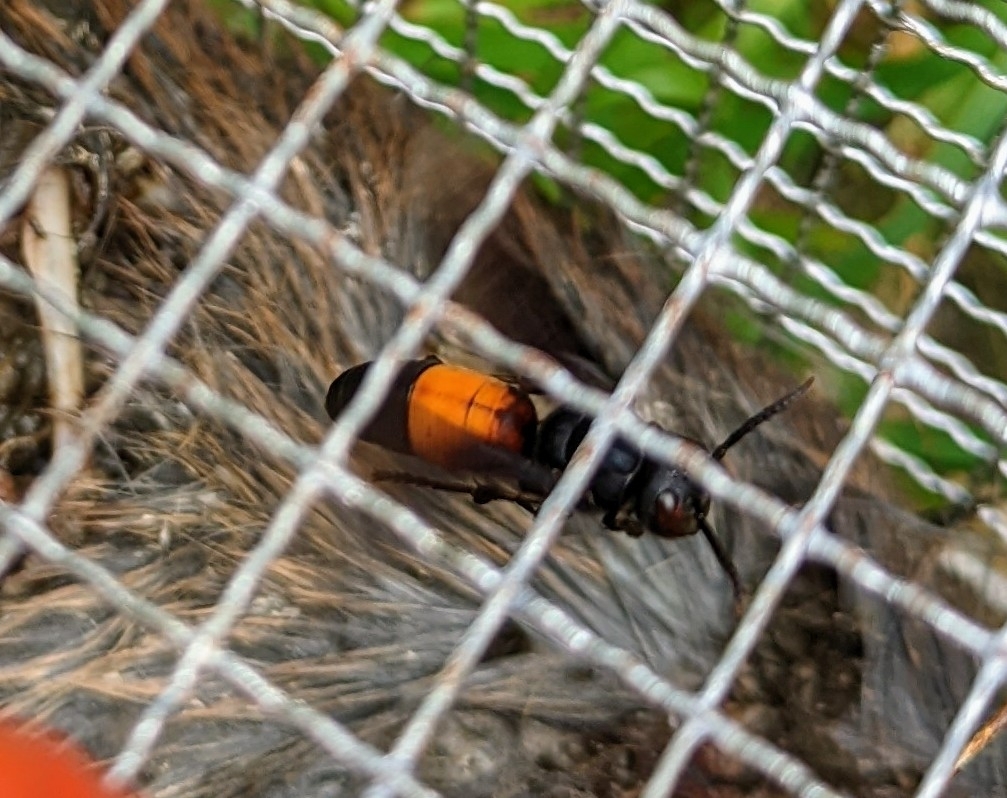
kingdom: Animalia
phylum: Arthropoda
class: Insecta
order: Hymenoptera
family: Vespidae
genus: Vespa
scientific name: Vespa affinis
